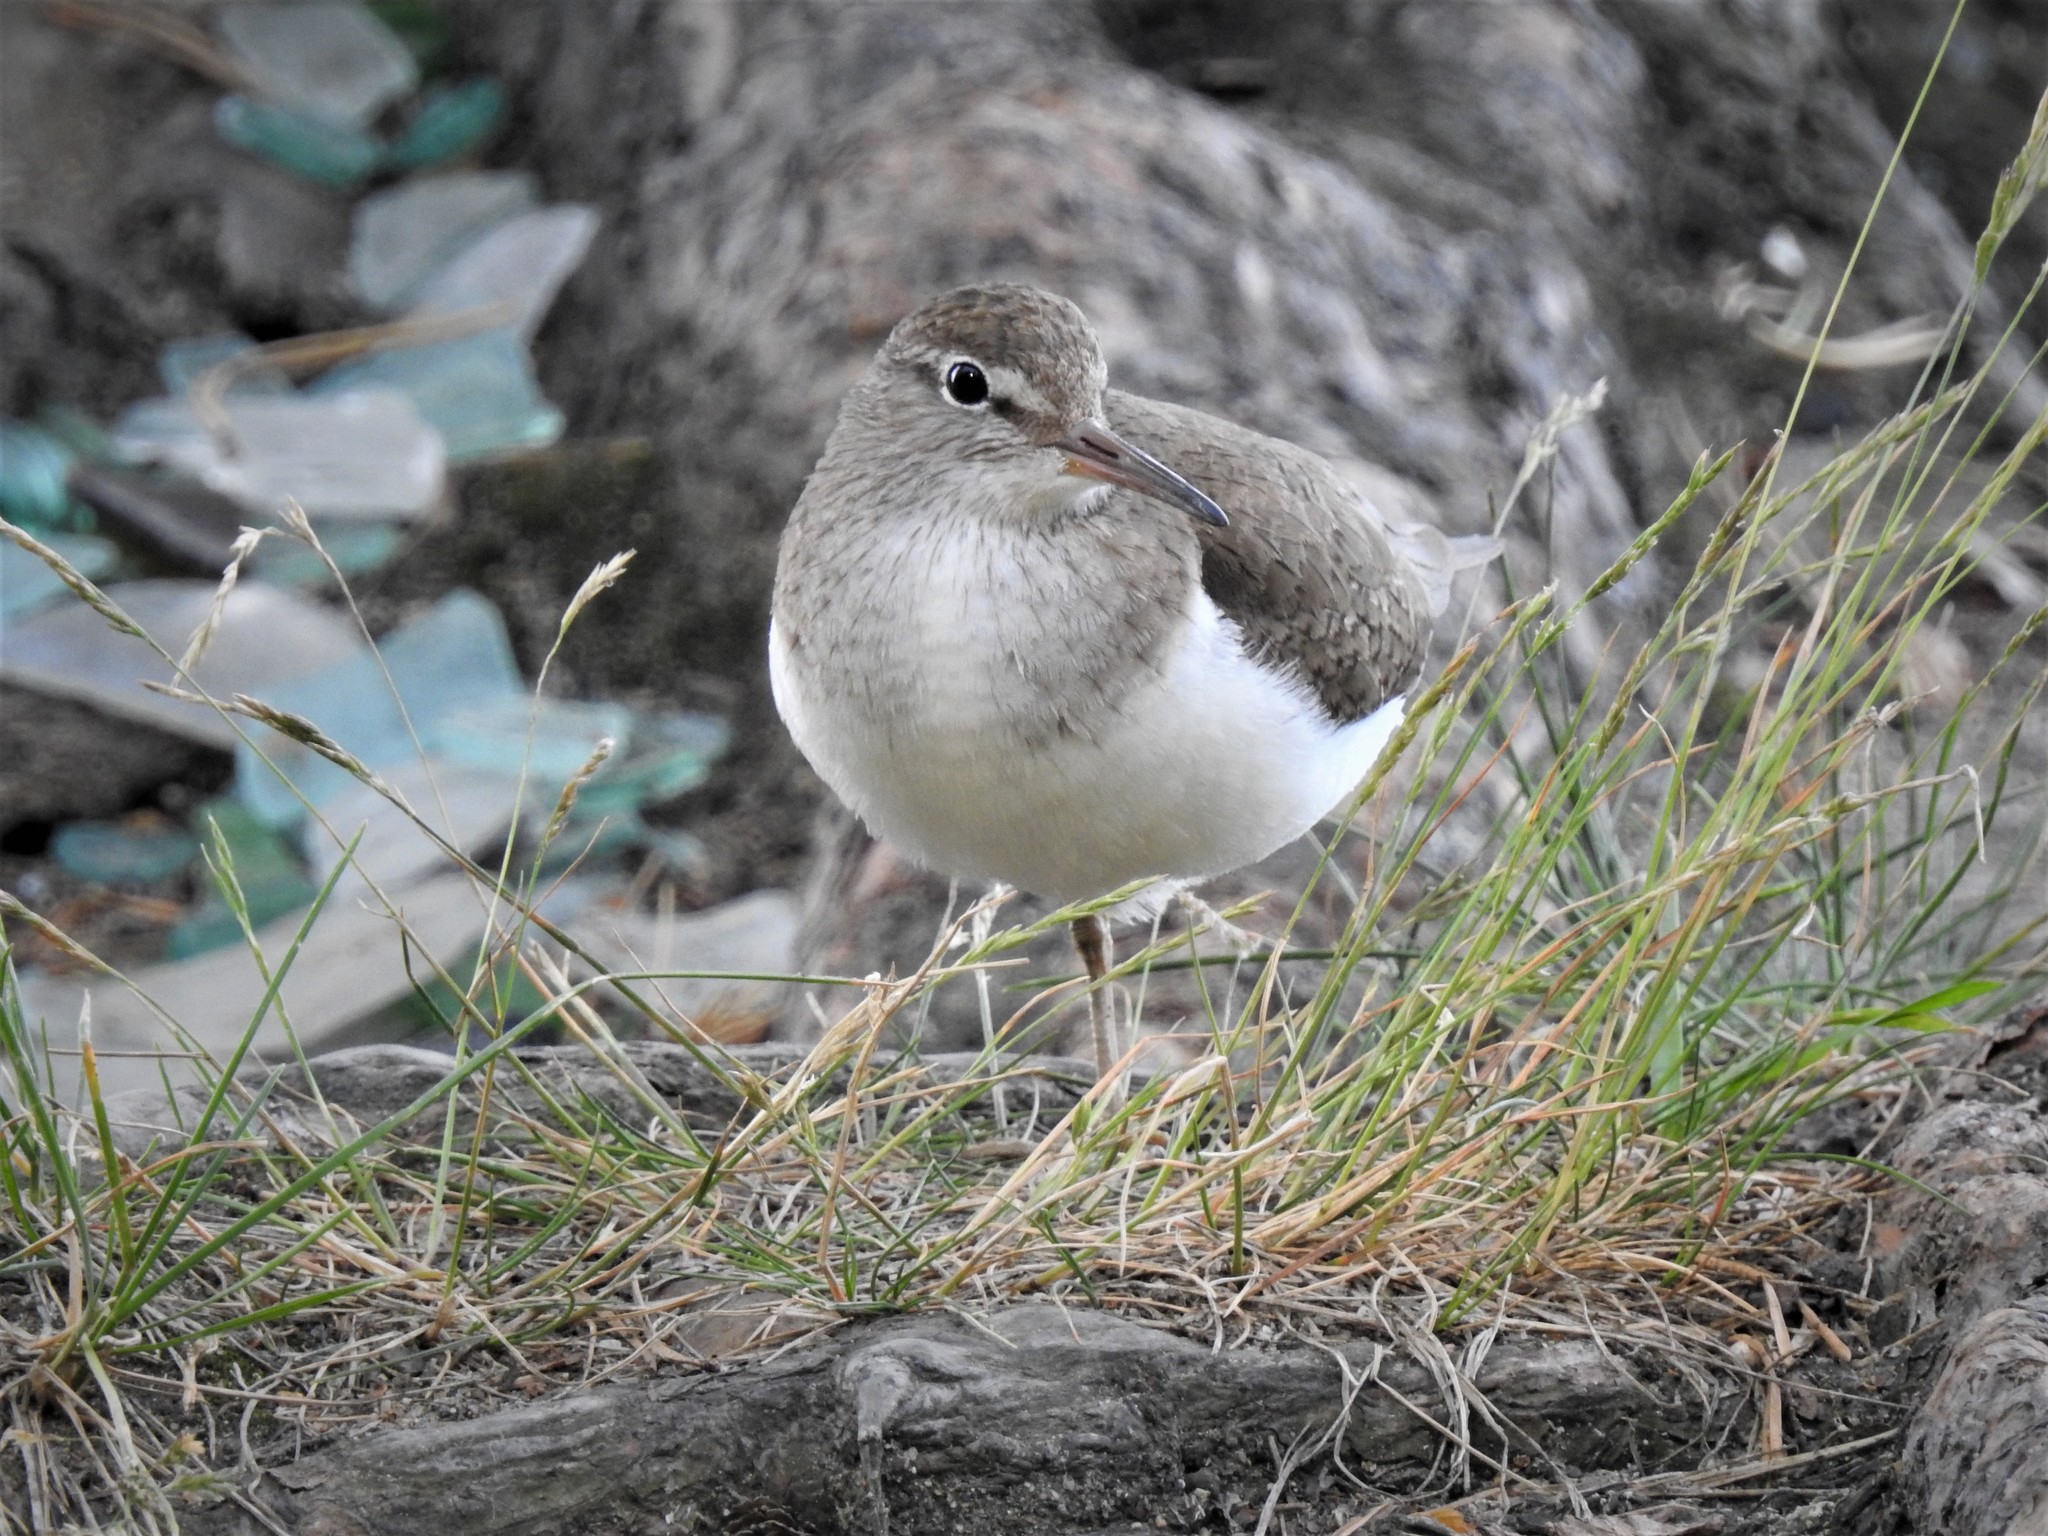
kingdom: Animalia
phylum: Chordata
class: Aves
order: Charadriiformes
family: Scolopacidae
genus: Actitis
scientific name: Actitis hypoleucos
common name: Common sandpiper
